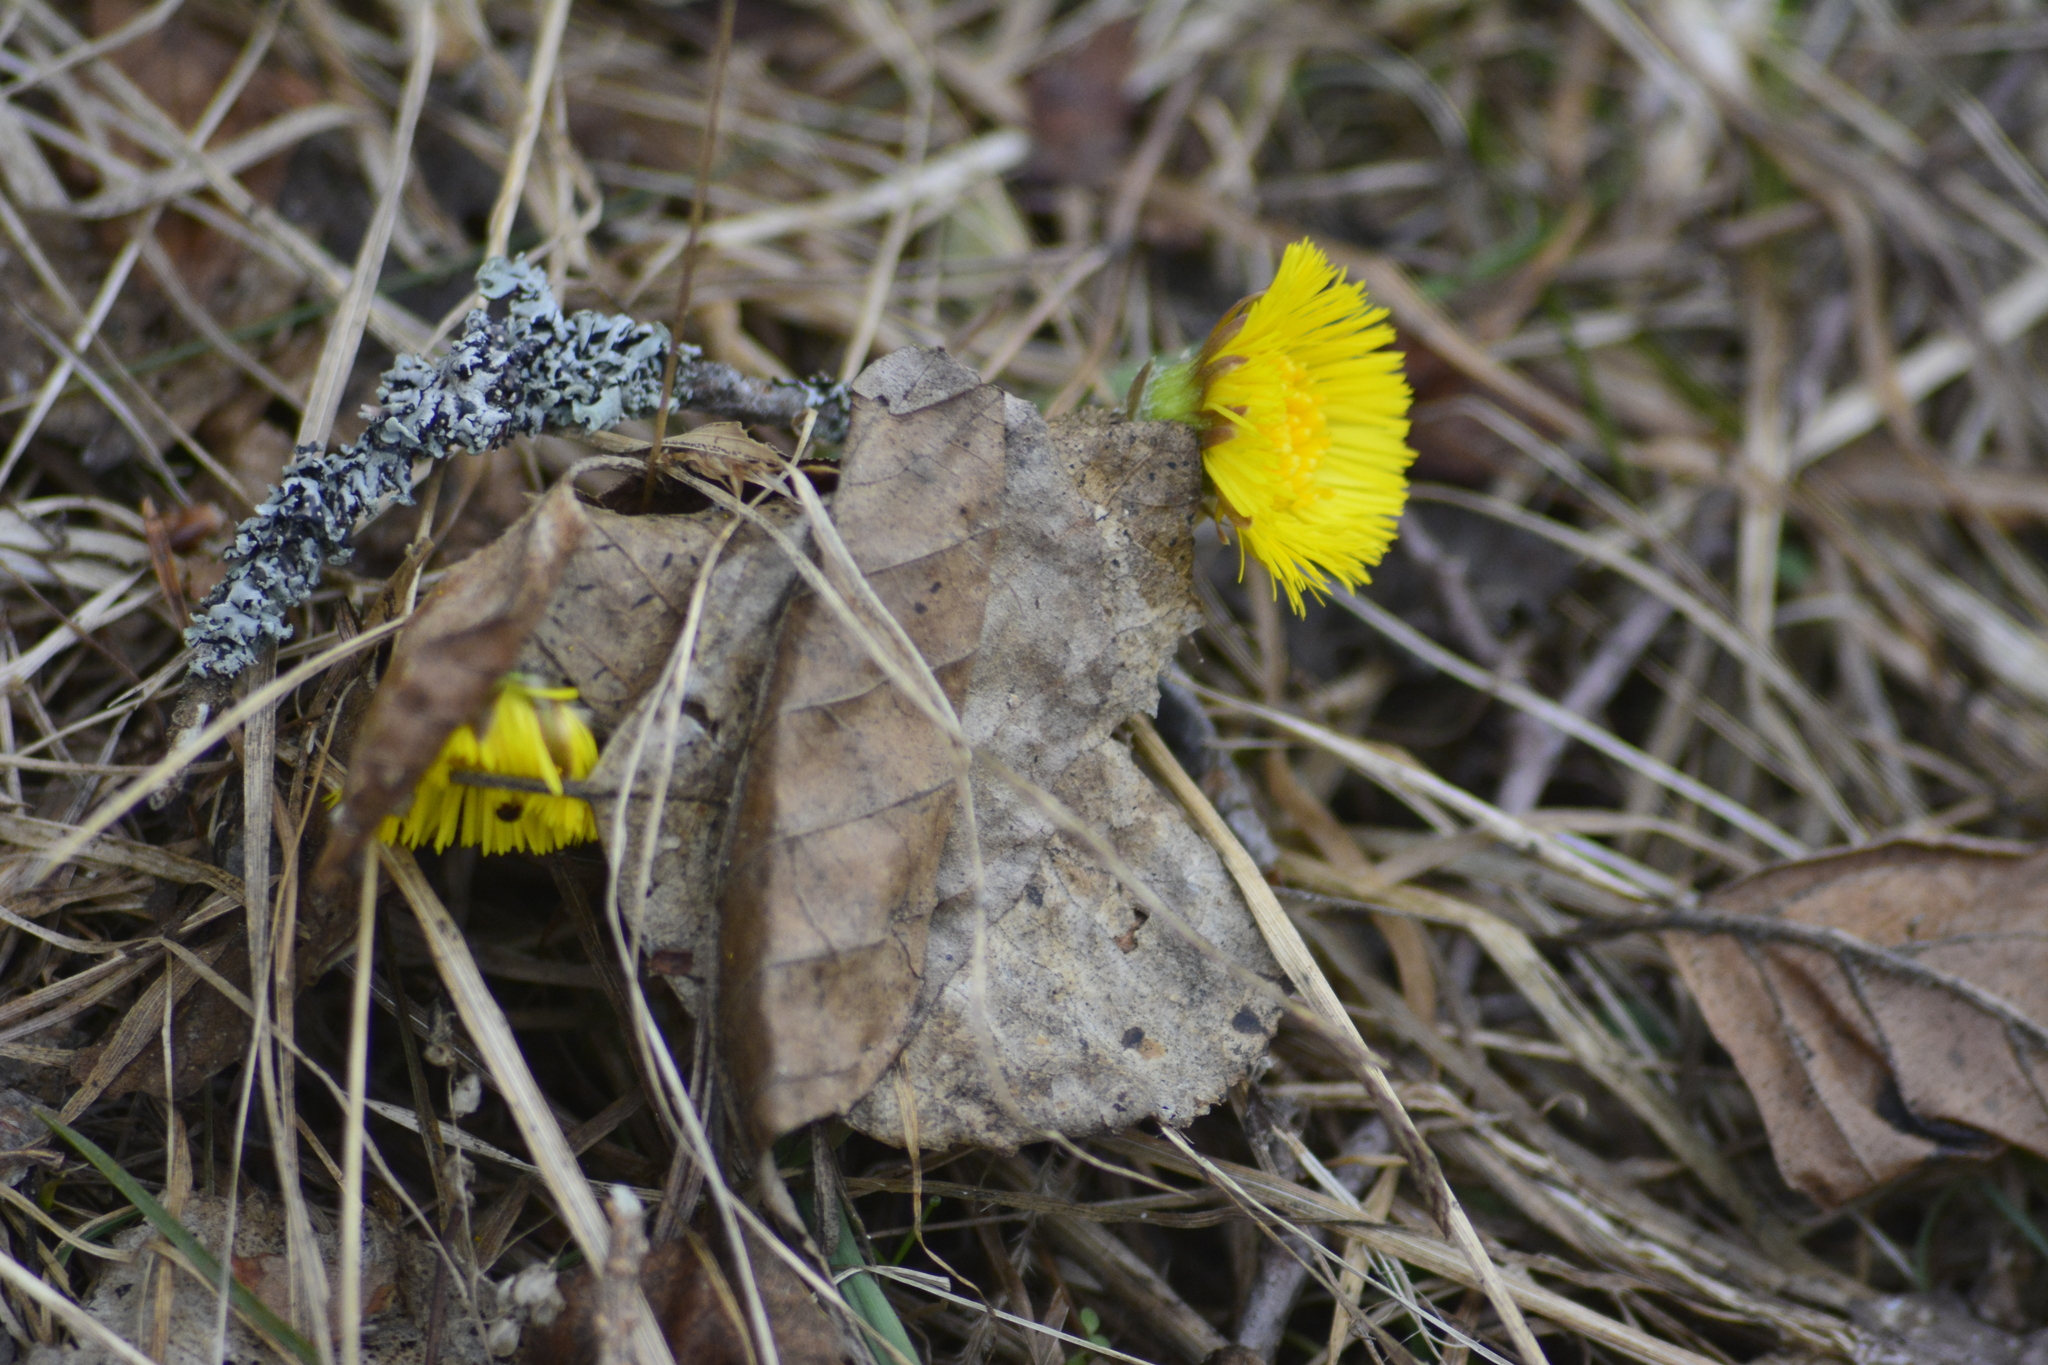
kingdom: Plantae
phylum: Tracheophyta
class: Magnoliopsida
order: Asterales
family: Asteraceae
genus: Tussilago
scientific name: Tussilago farfara
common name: Coltsfoot
